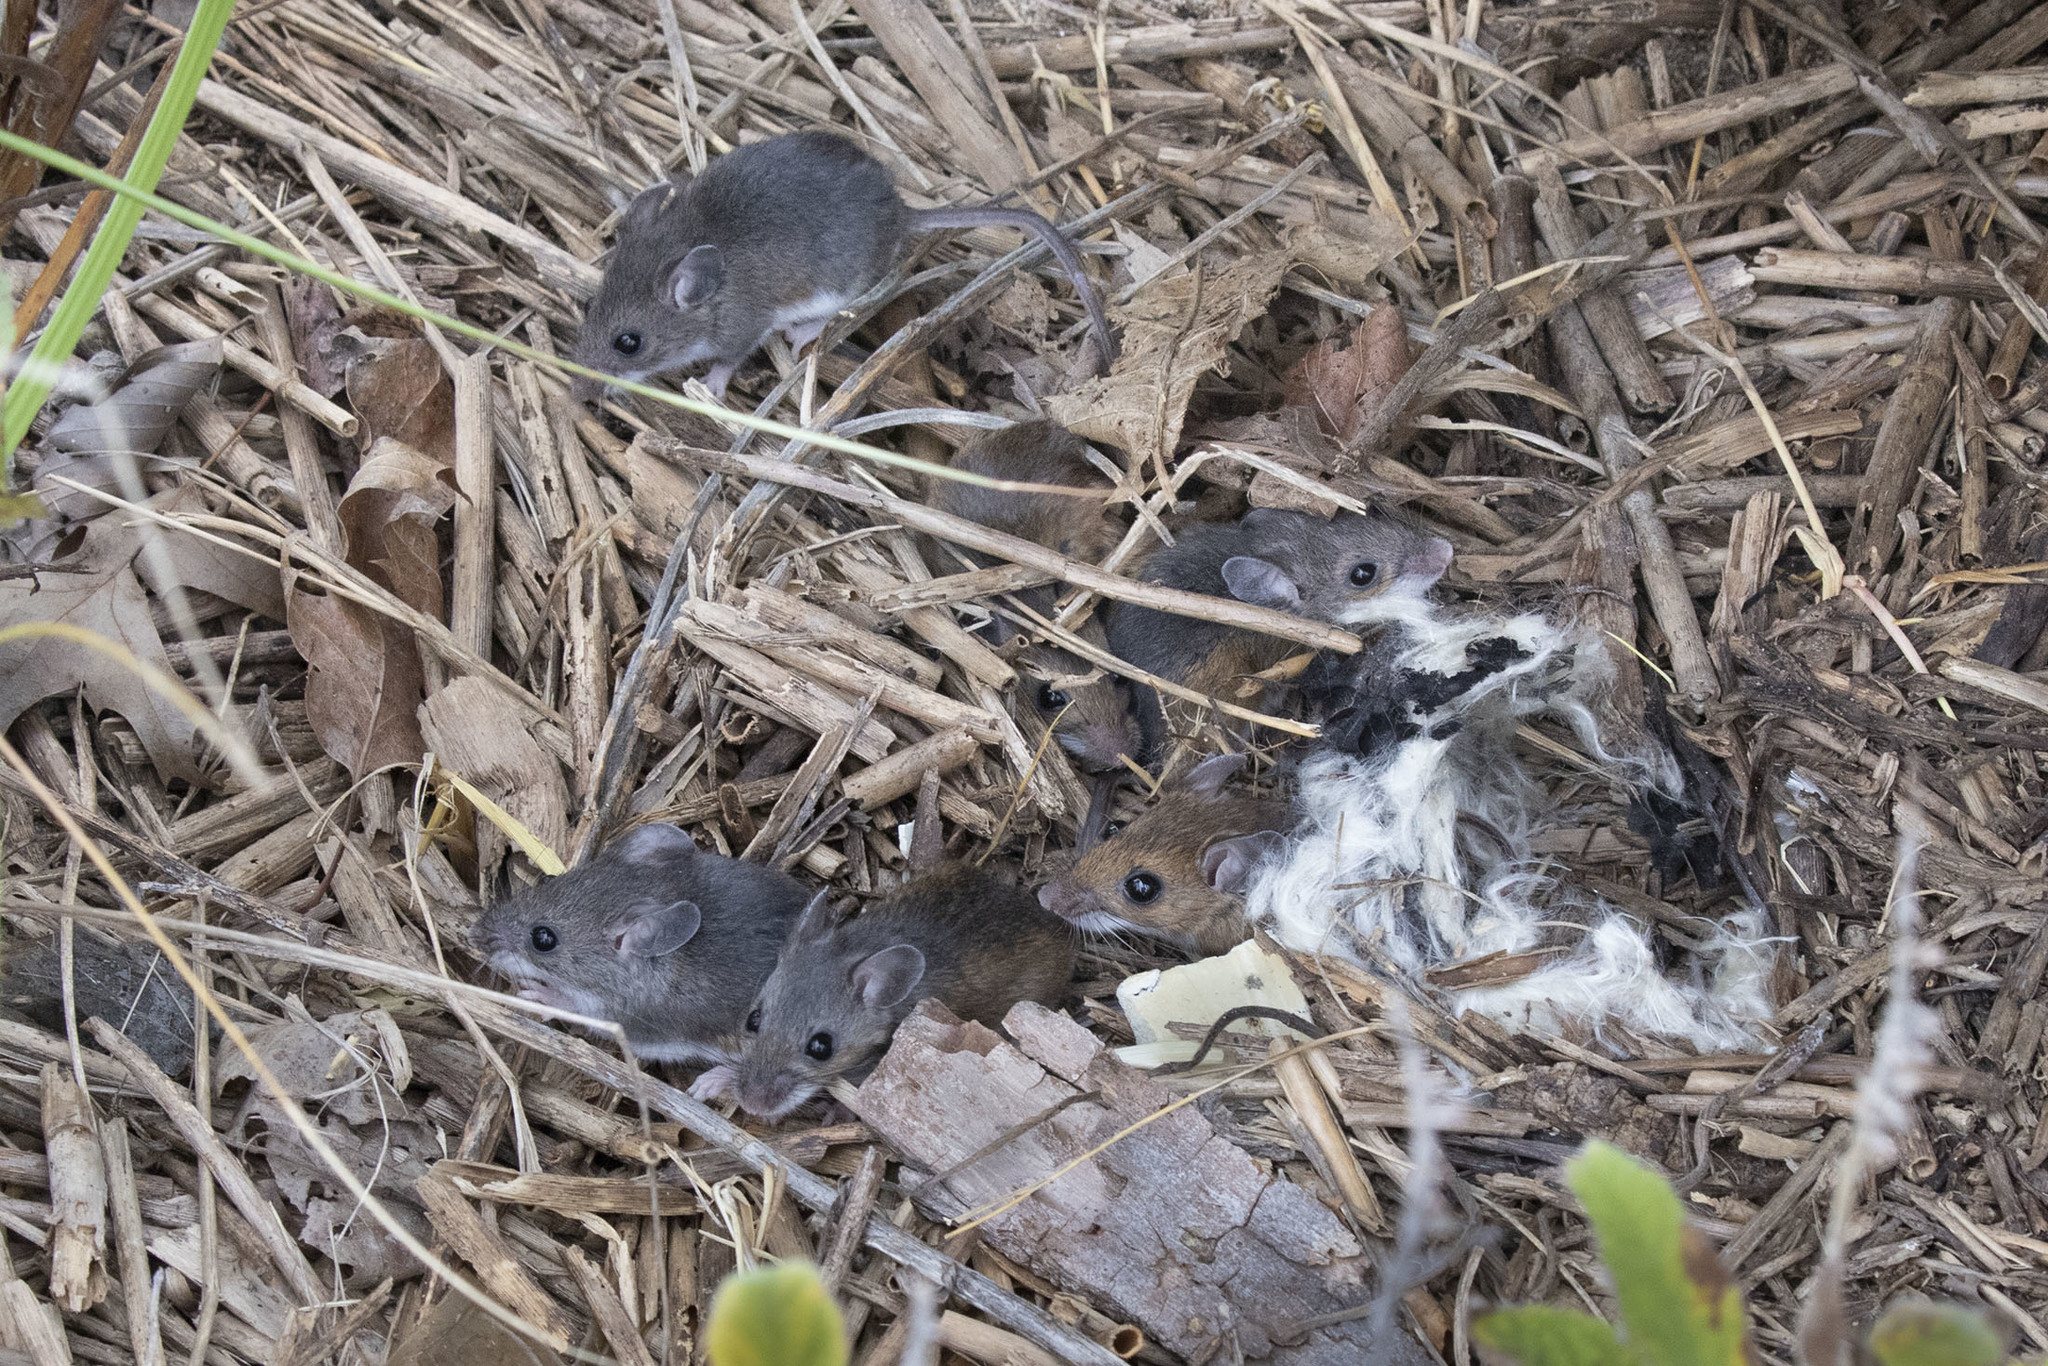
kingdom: Animalia
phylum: Chordata
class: Mammalia
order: Rodentia
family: Cricetidae
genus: Peromyscus
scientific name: Peromyscus leucopus
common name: White-footed deermouse
